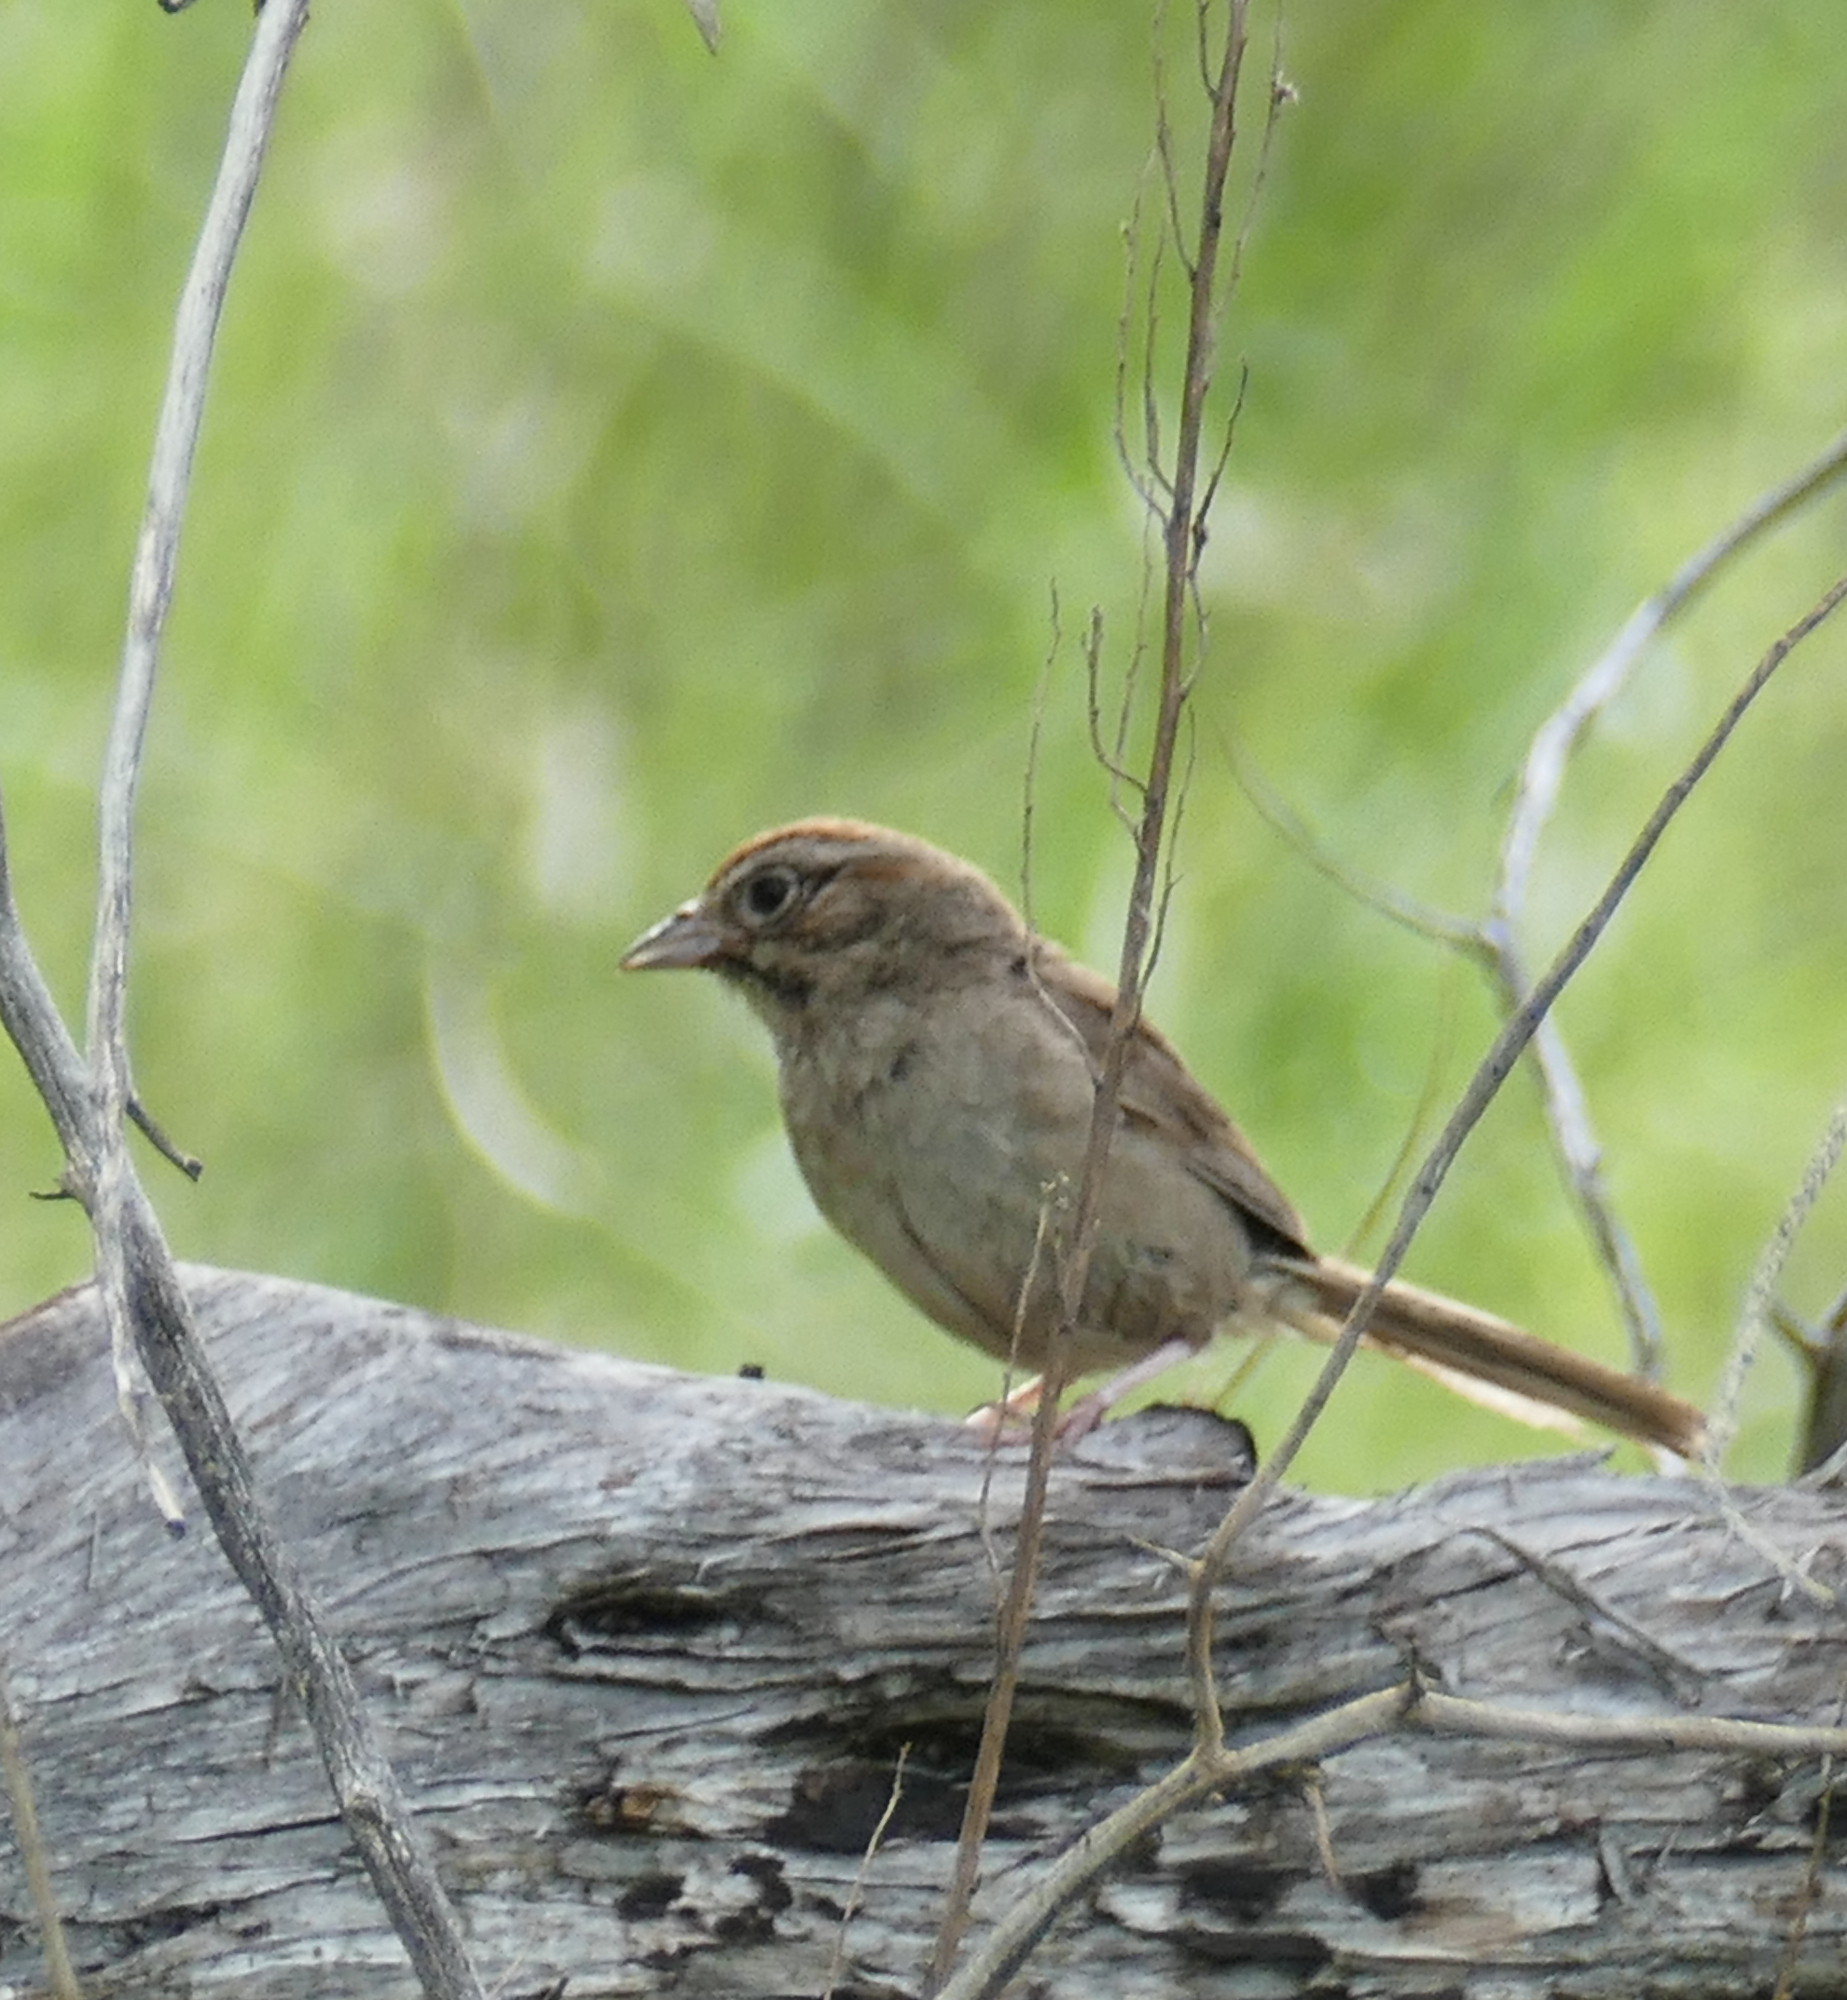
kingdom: Animalia
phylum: Chordata
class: Aves
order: Passeriformes
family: Passerellidae
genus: Aimophila
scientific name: Aimophila ruficeps
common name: Rufous-crowned sparrow
